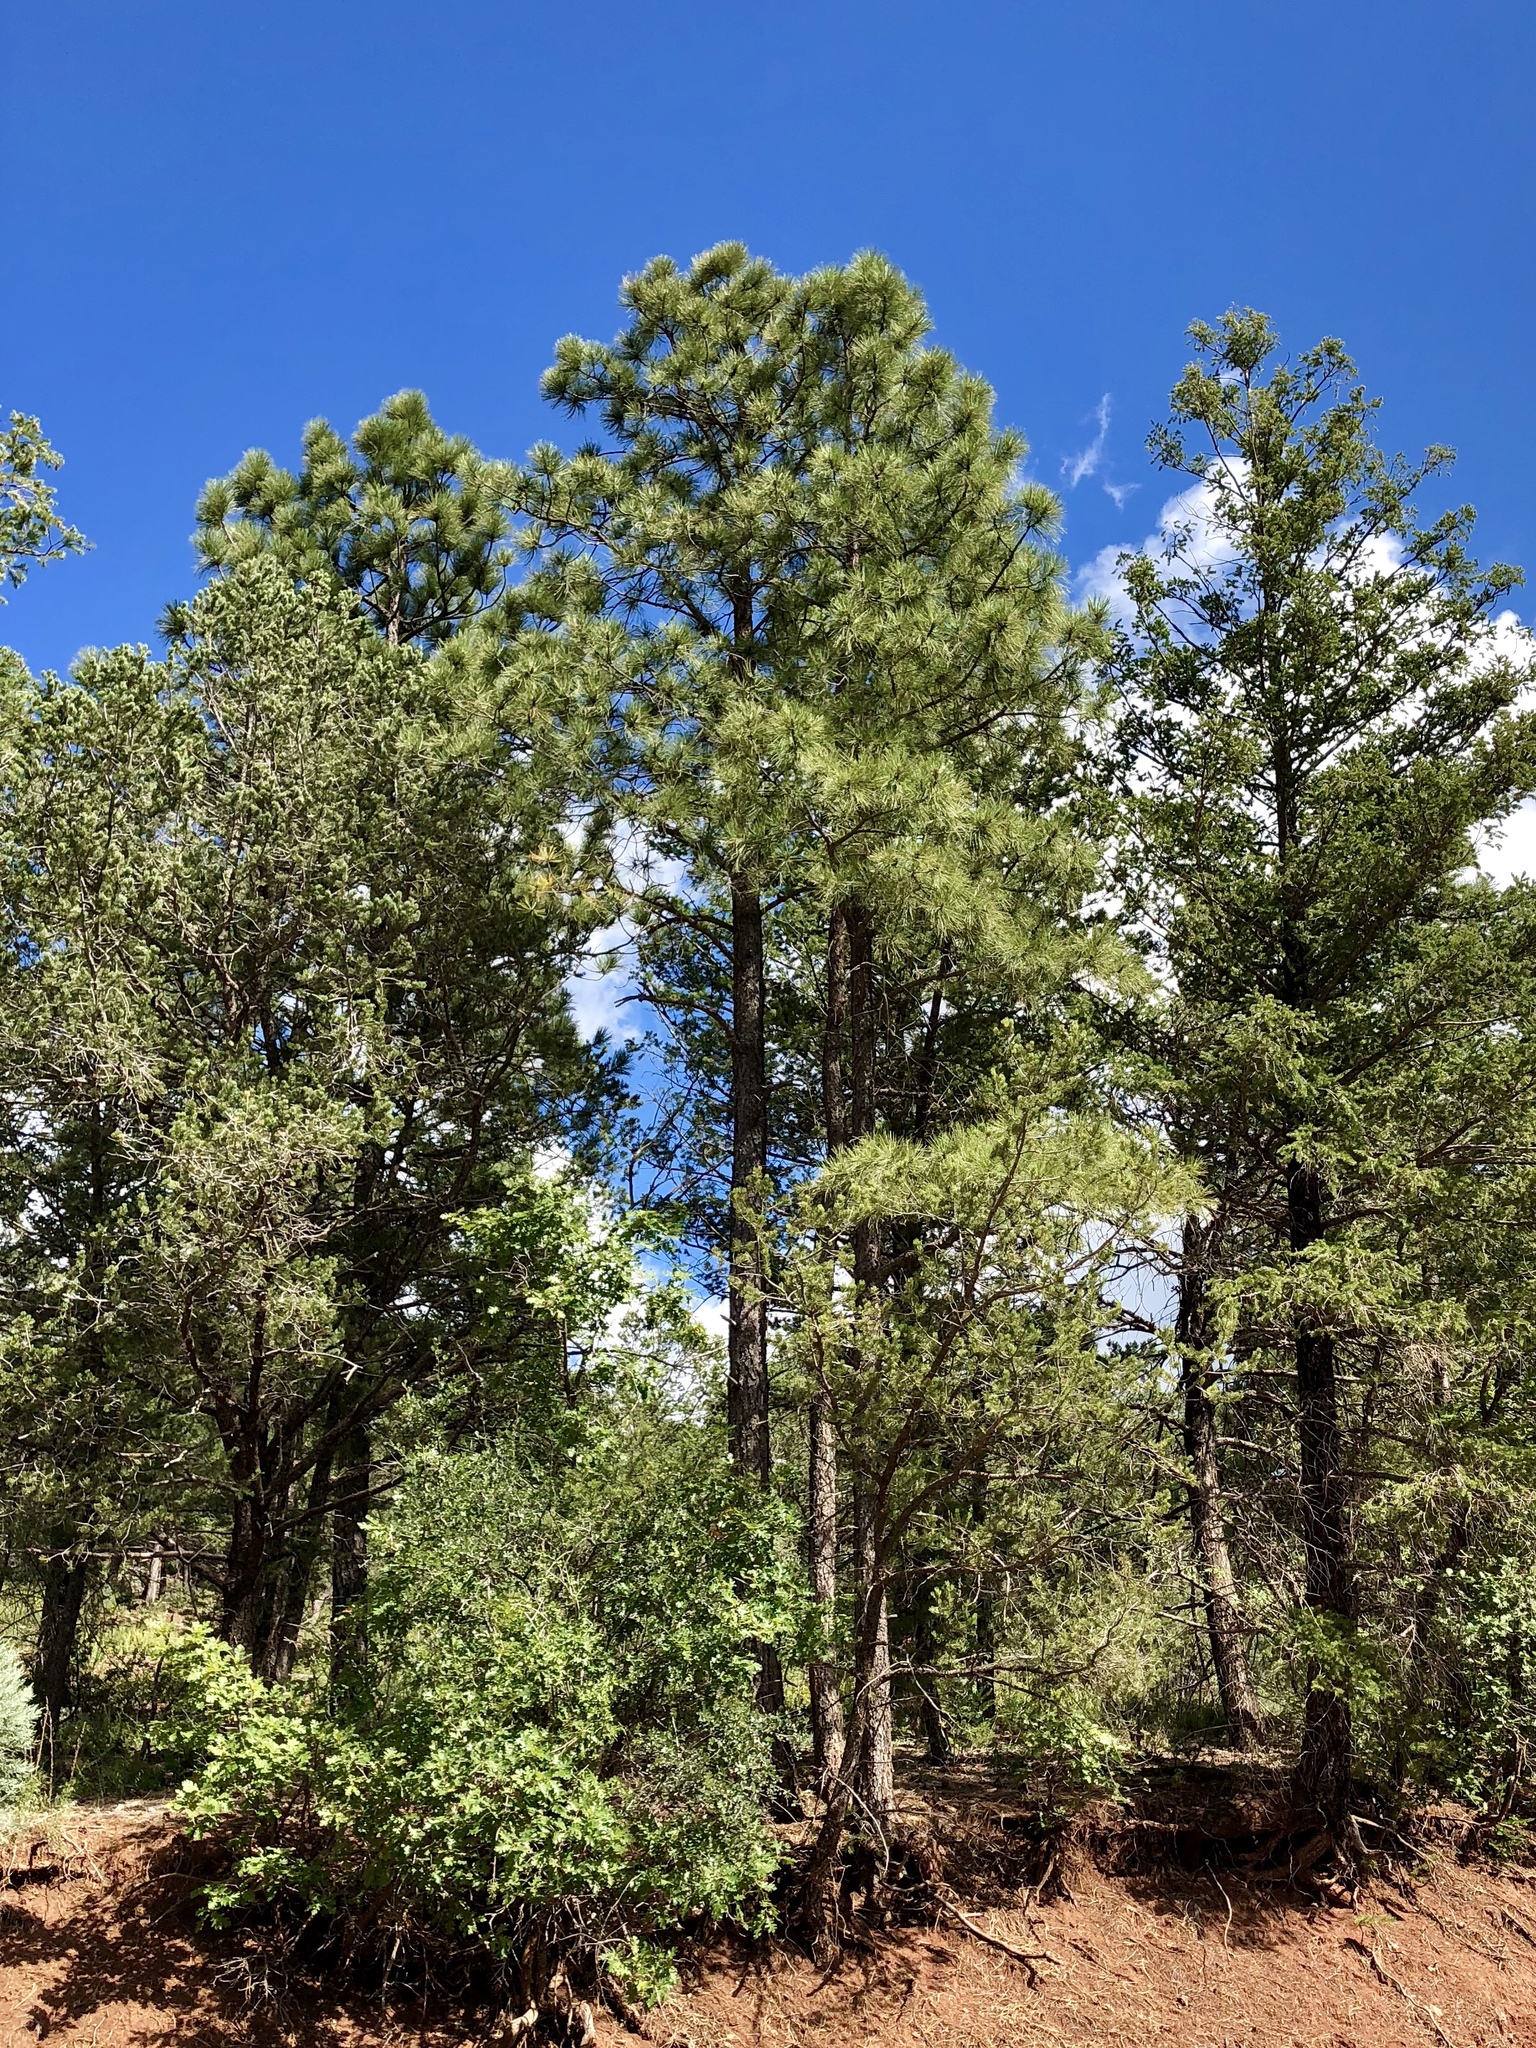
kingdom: Plantae
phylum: Tracheophyta
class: Pinopsida
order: Pinales
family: Pinaceae
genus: Pinus
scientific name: Pinus ponderosa
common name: Western yellow-pine
